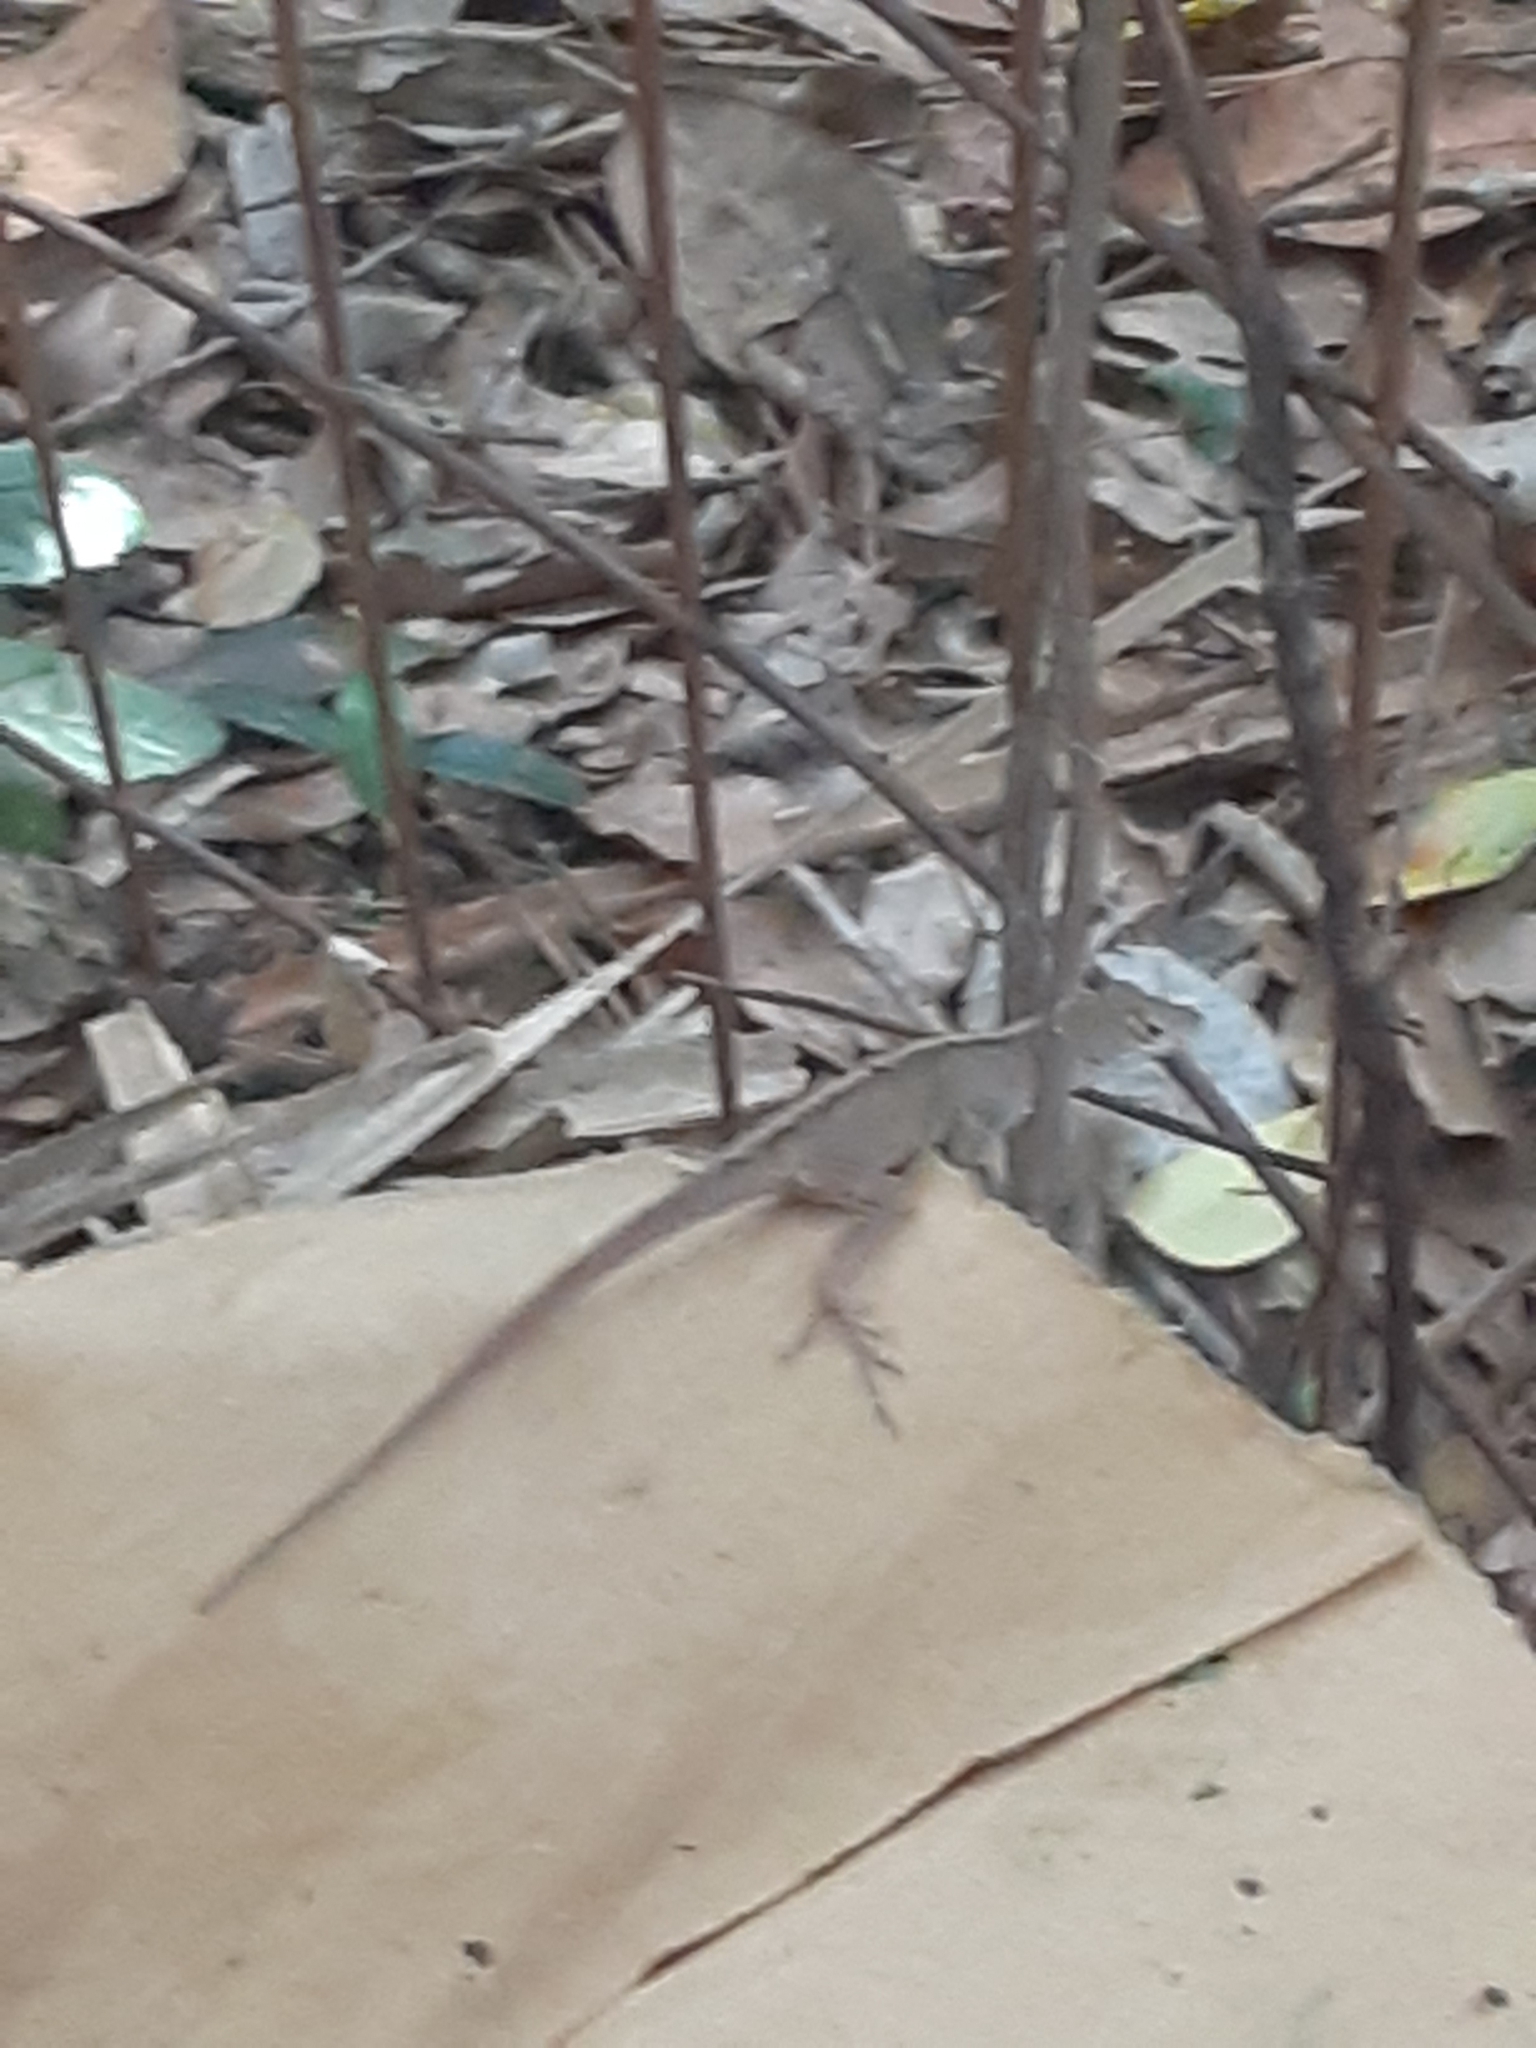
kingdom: Animalia
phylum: Chordata
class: Squamata
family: Dactyloidae
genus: Anolis
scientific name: Anolis sagrei
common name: Brown anole
